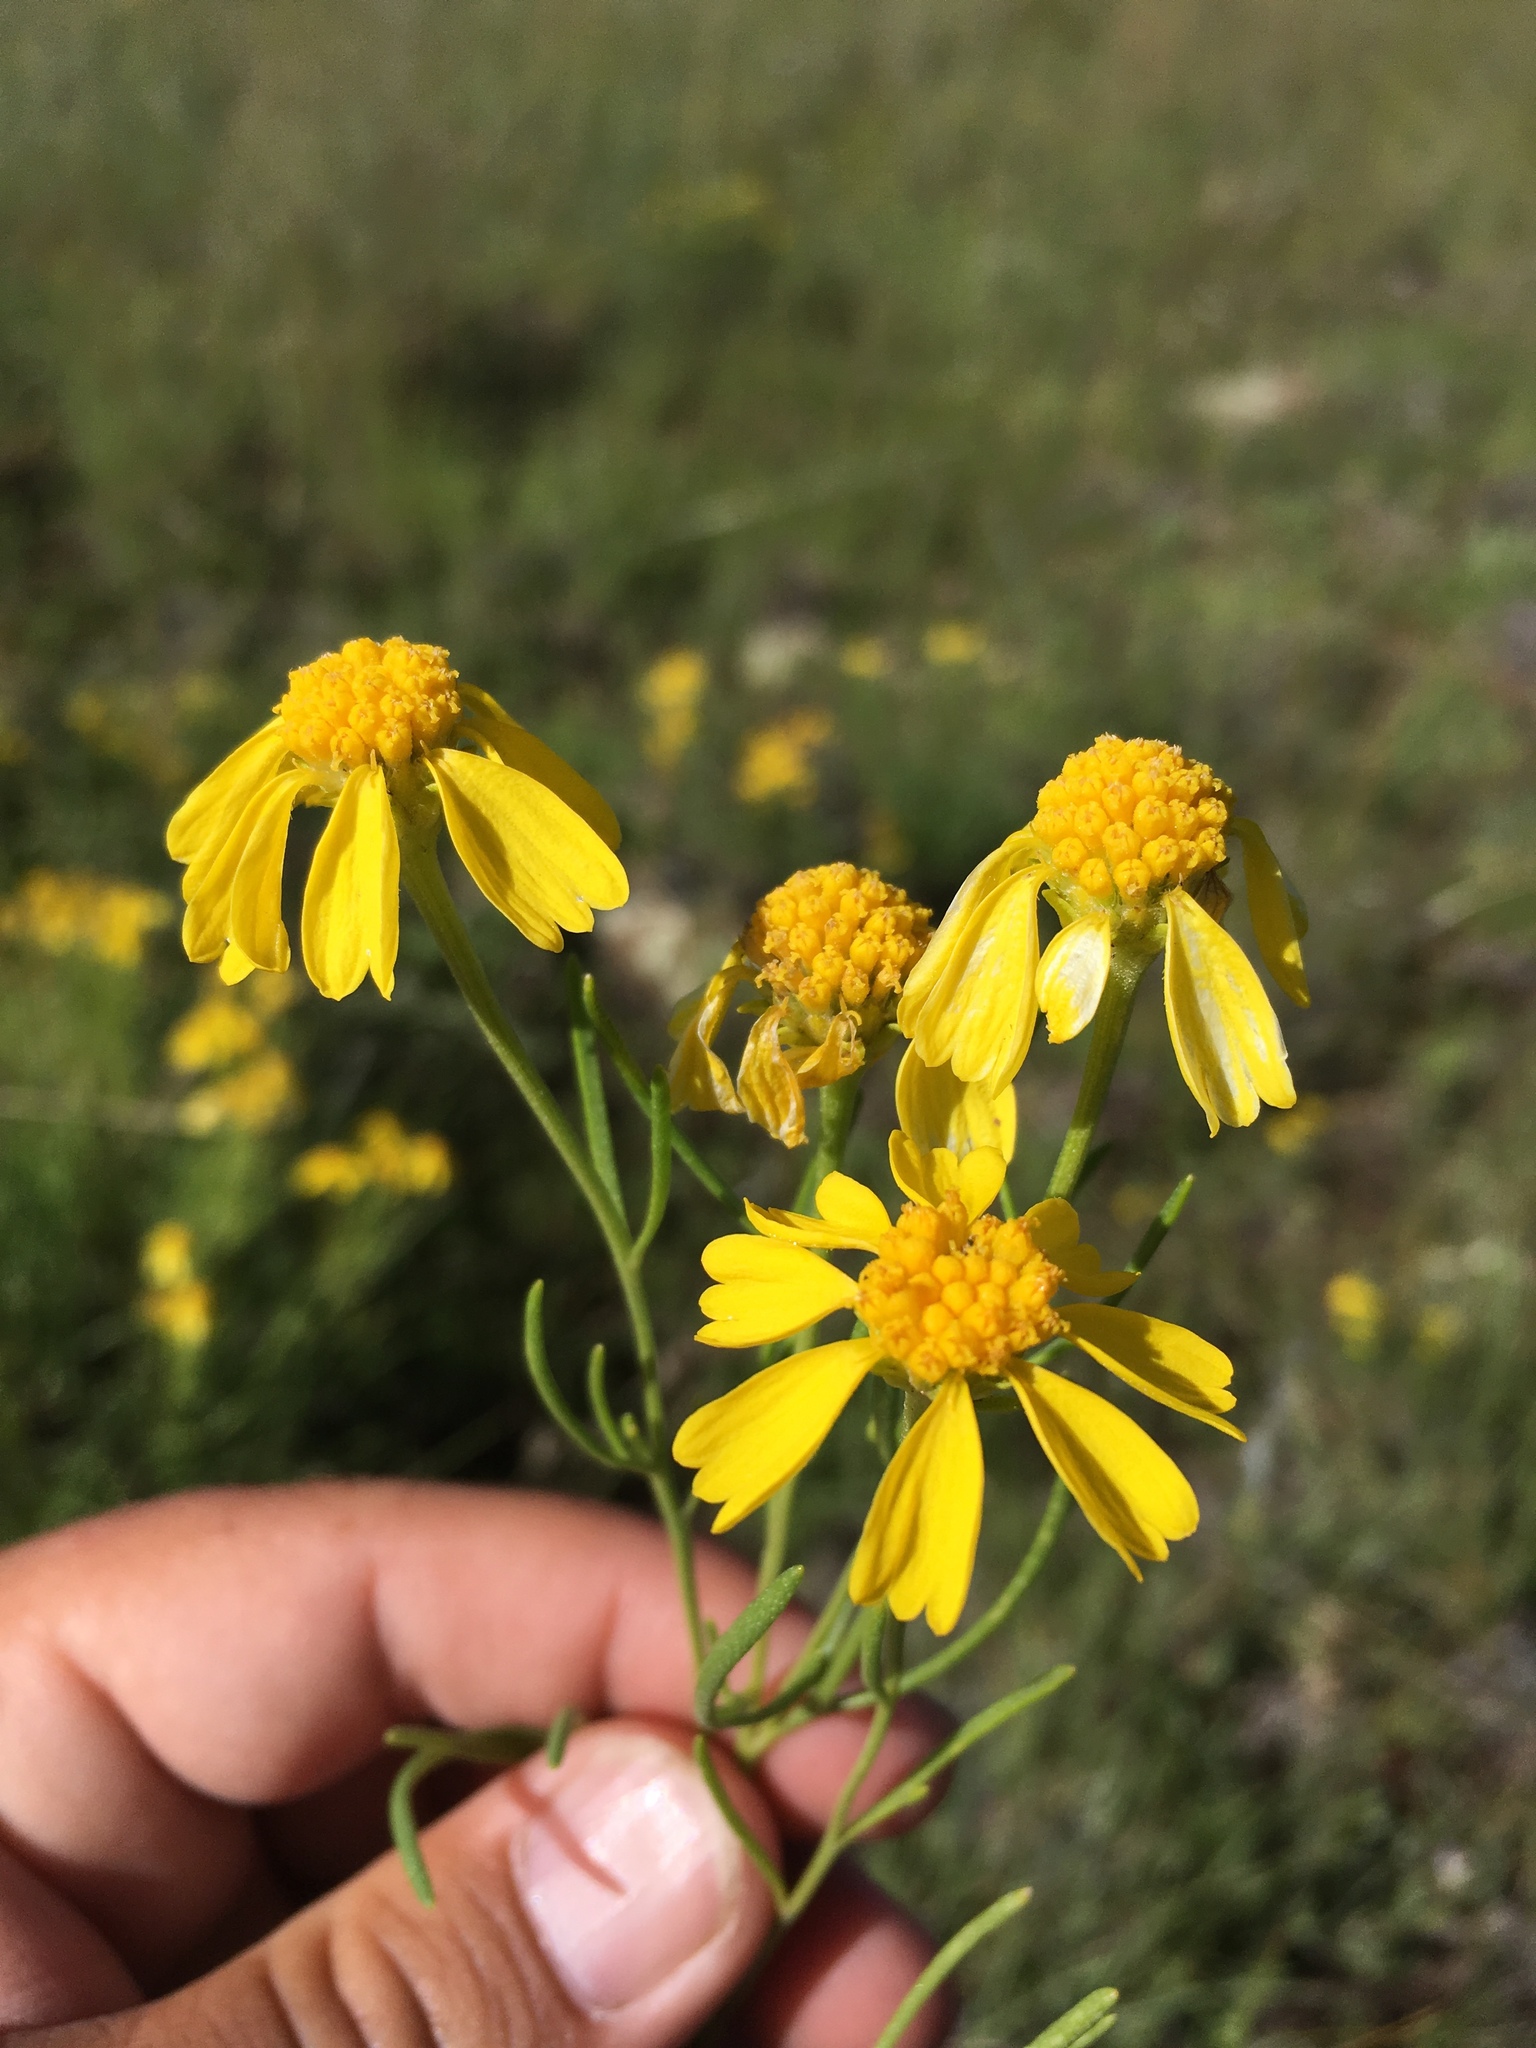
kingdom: Plantae
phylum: Tracheophyta
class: Magnoliopsida
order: Asterales
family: Asteraceae
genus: Hymenoxys
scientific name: Hymenoxys richardsonii
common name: Pingue rubberweed
